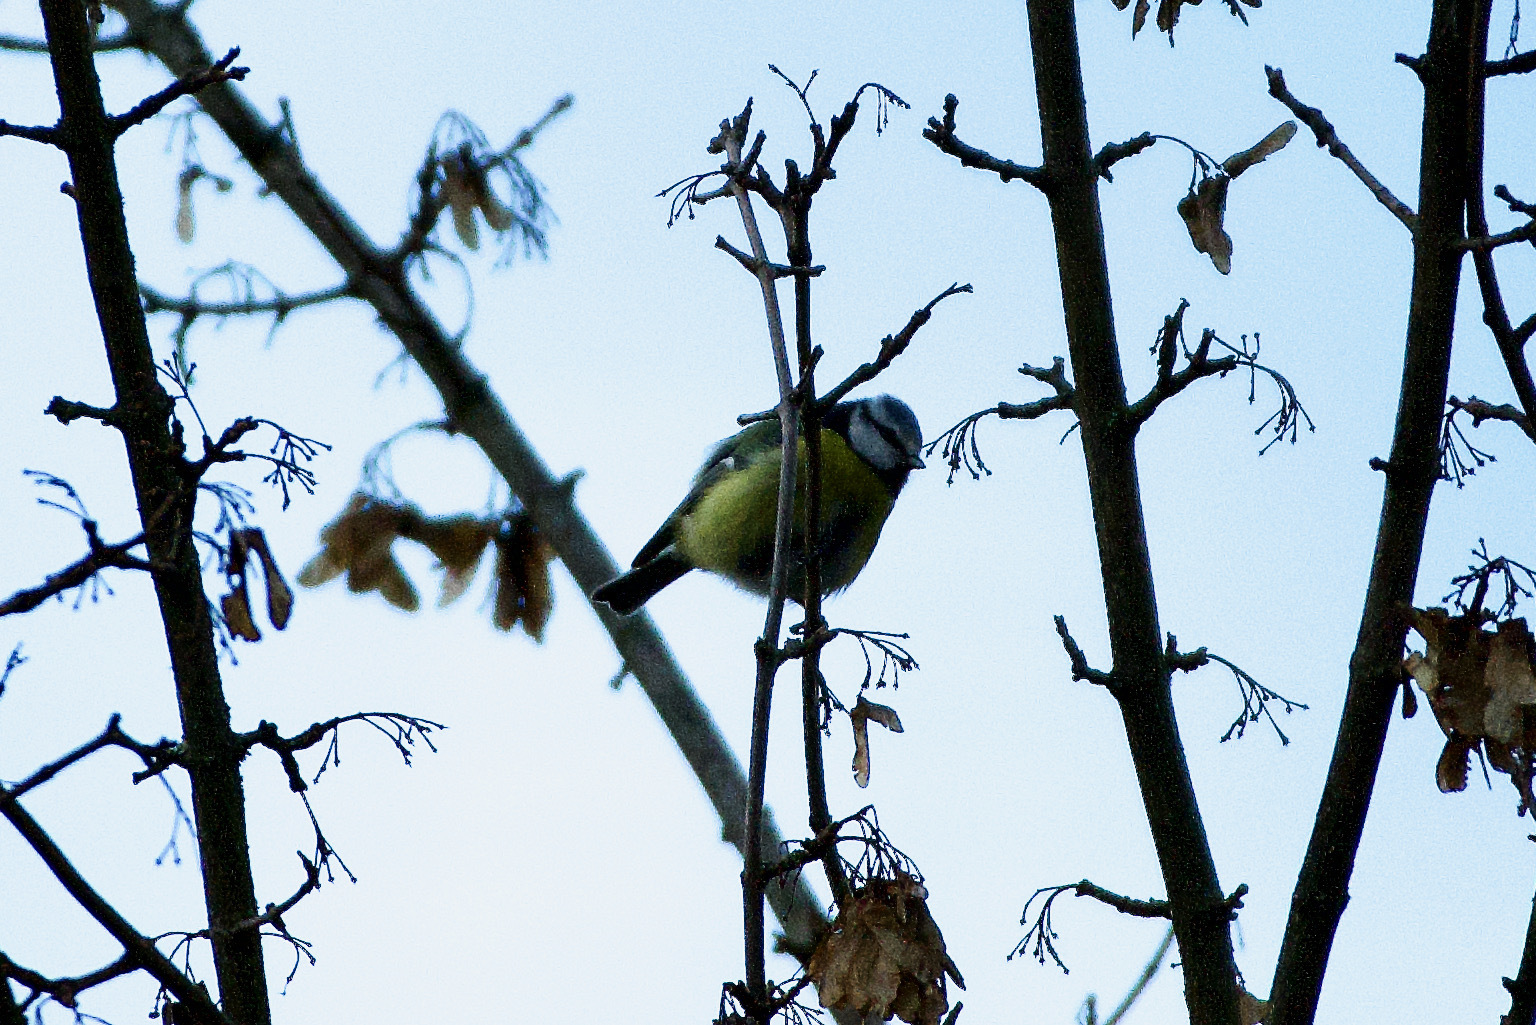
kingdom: Animalia
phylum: Chordata
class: Aves
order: Passeriformes
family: Paridae
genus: Cyanistes
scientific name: Cyanistes caeruleus
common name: Eurasian blue tit
